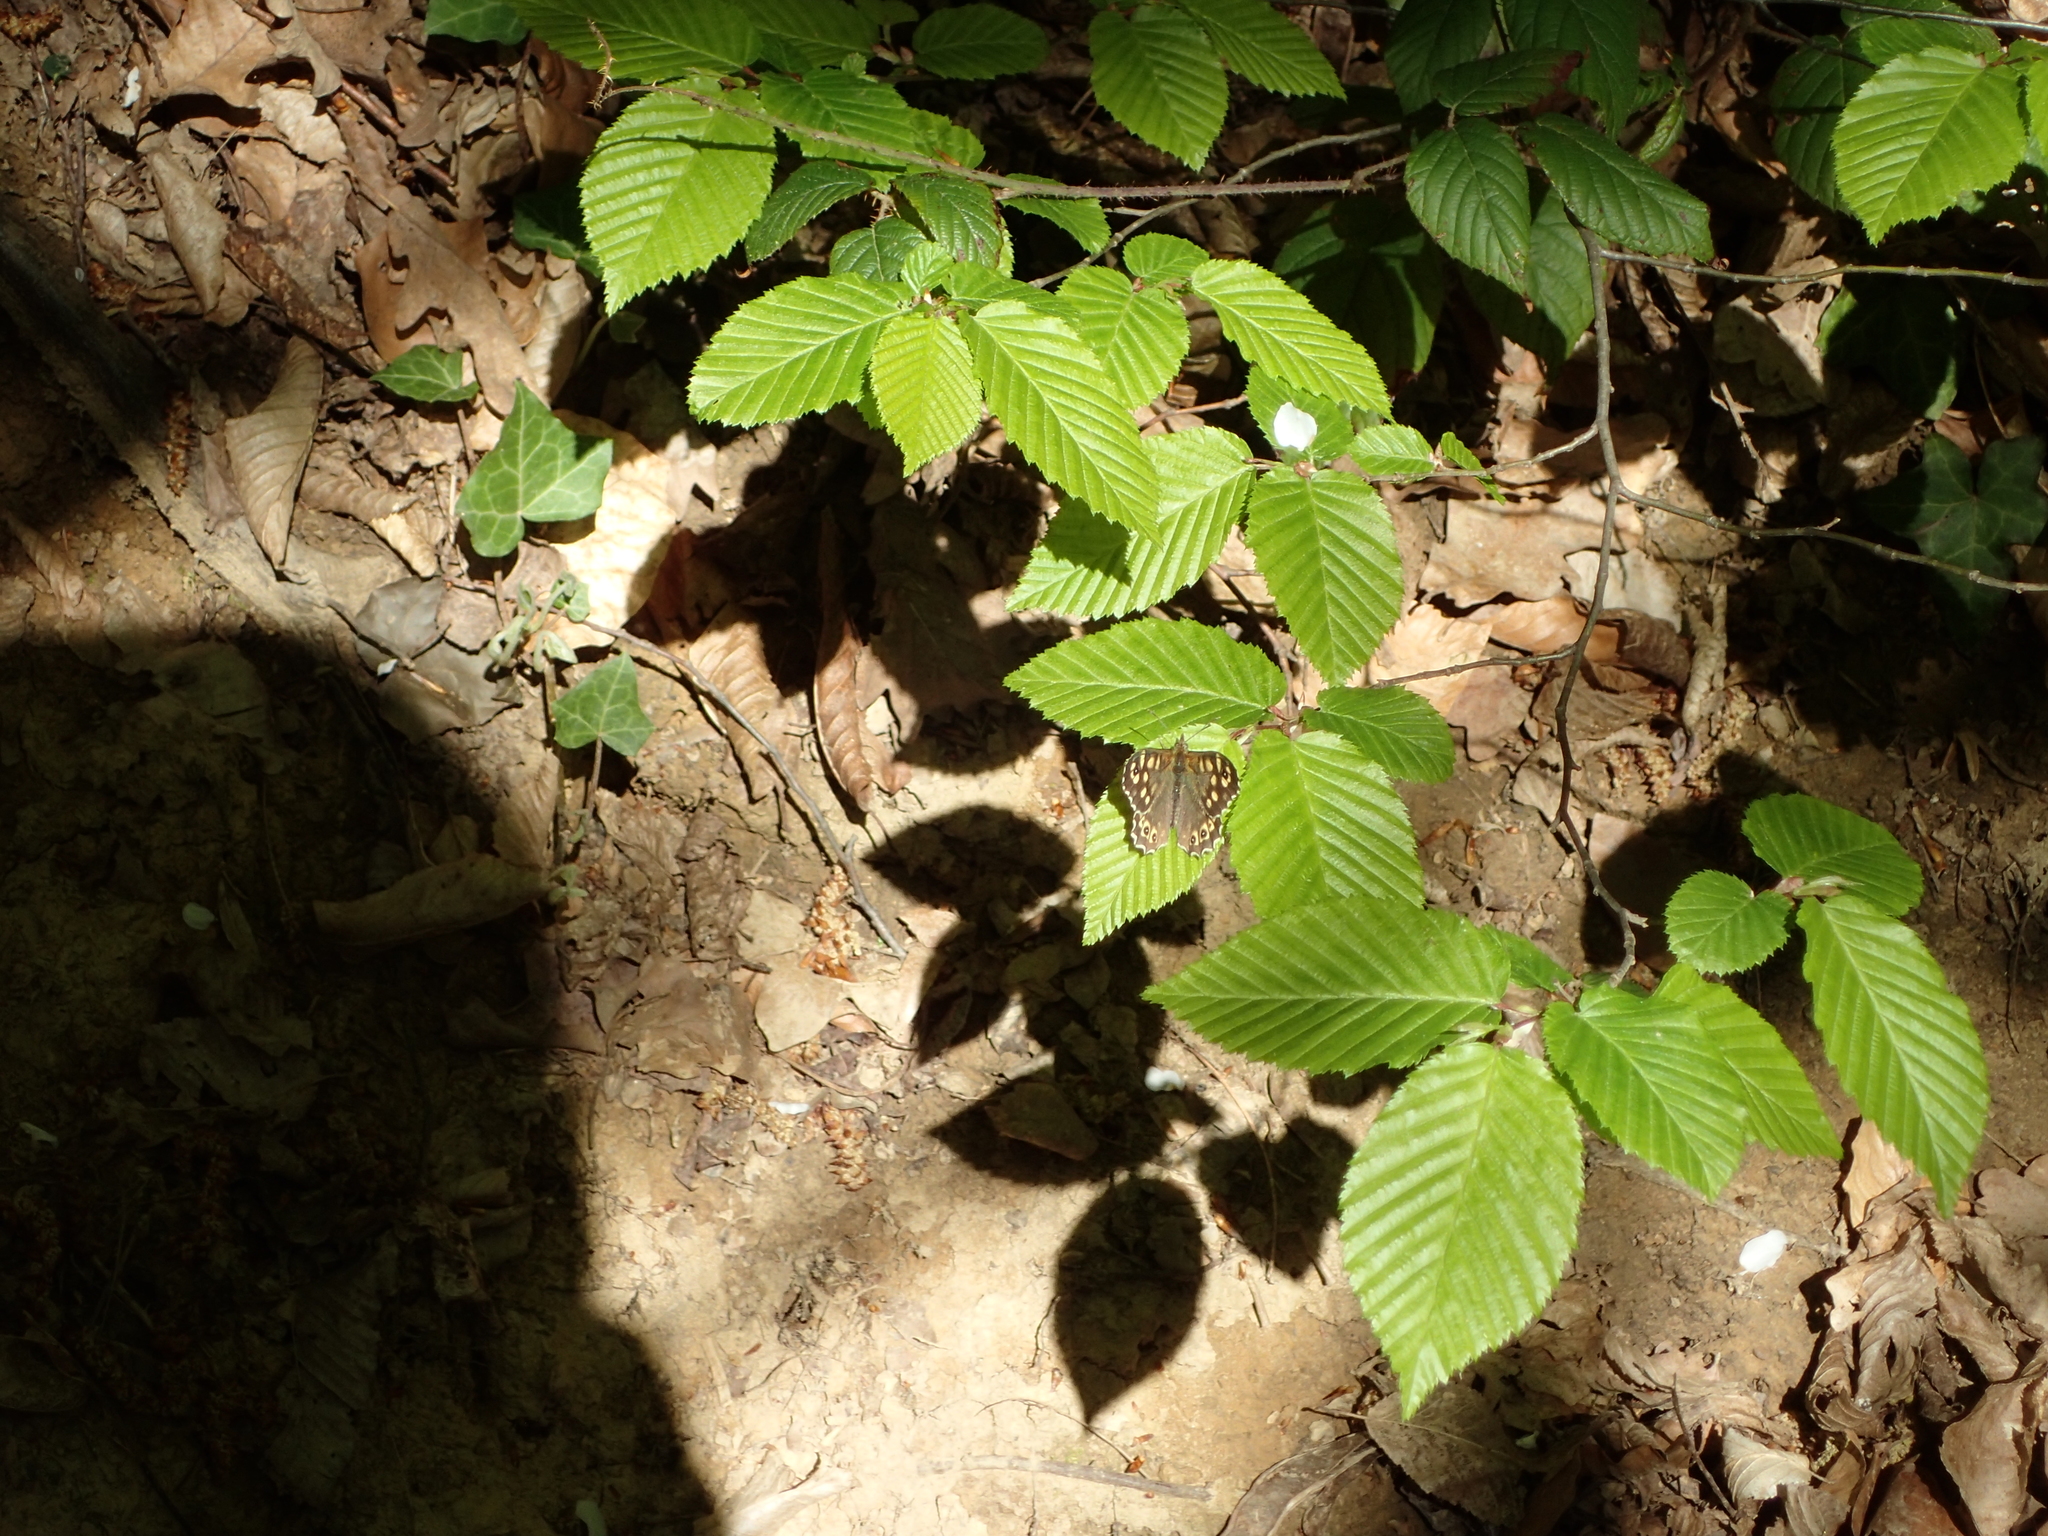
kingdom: Animalia
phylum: Arthropoda
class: Insecta
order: Lepidoptera
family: Nymphalidae
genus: Pararge
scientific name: Pararge aegeria
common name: Speckled wood
